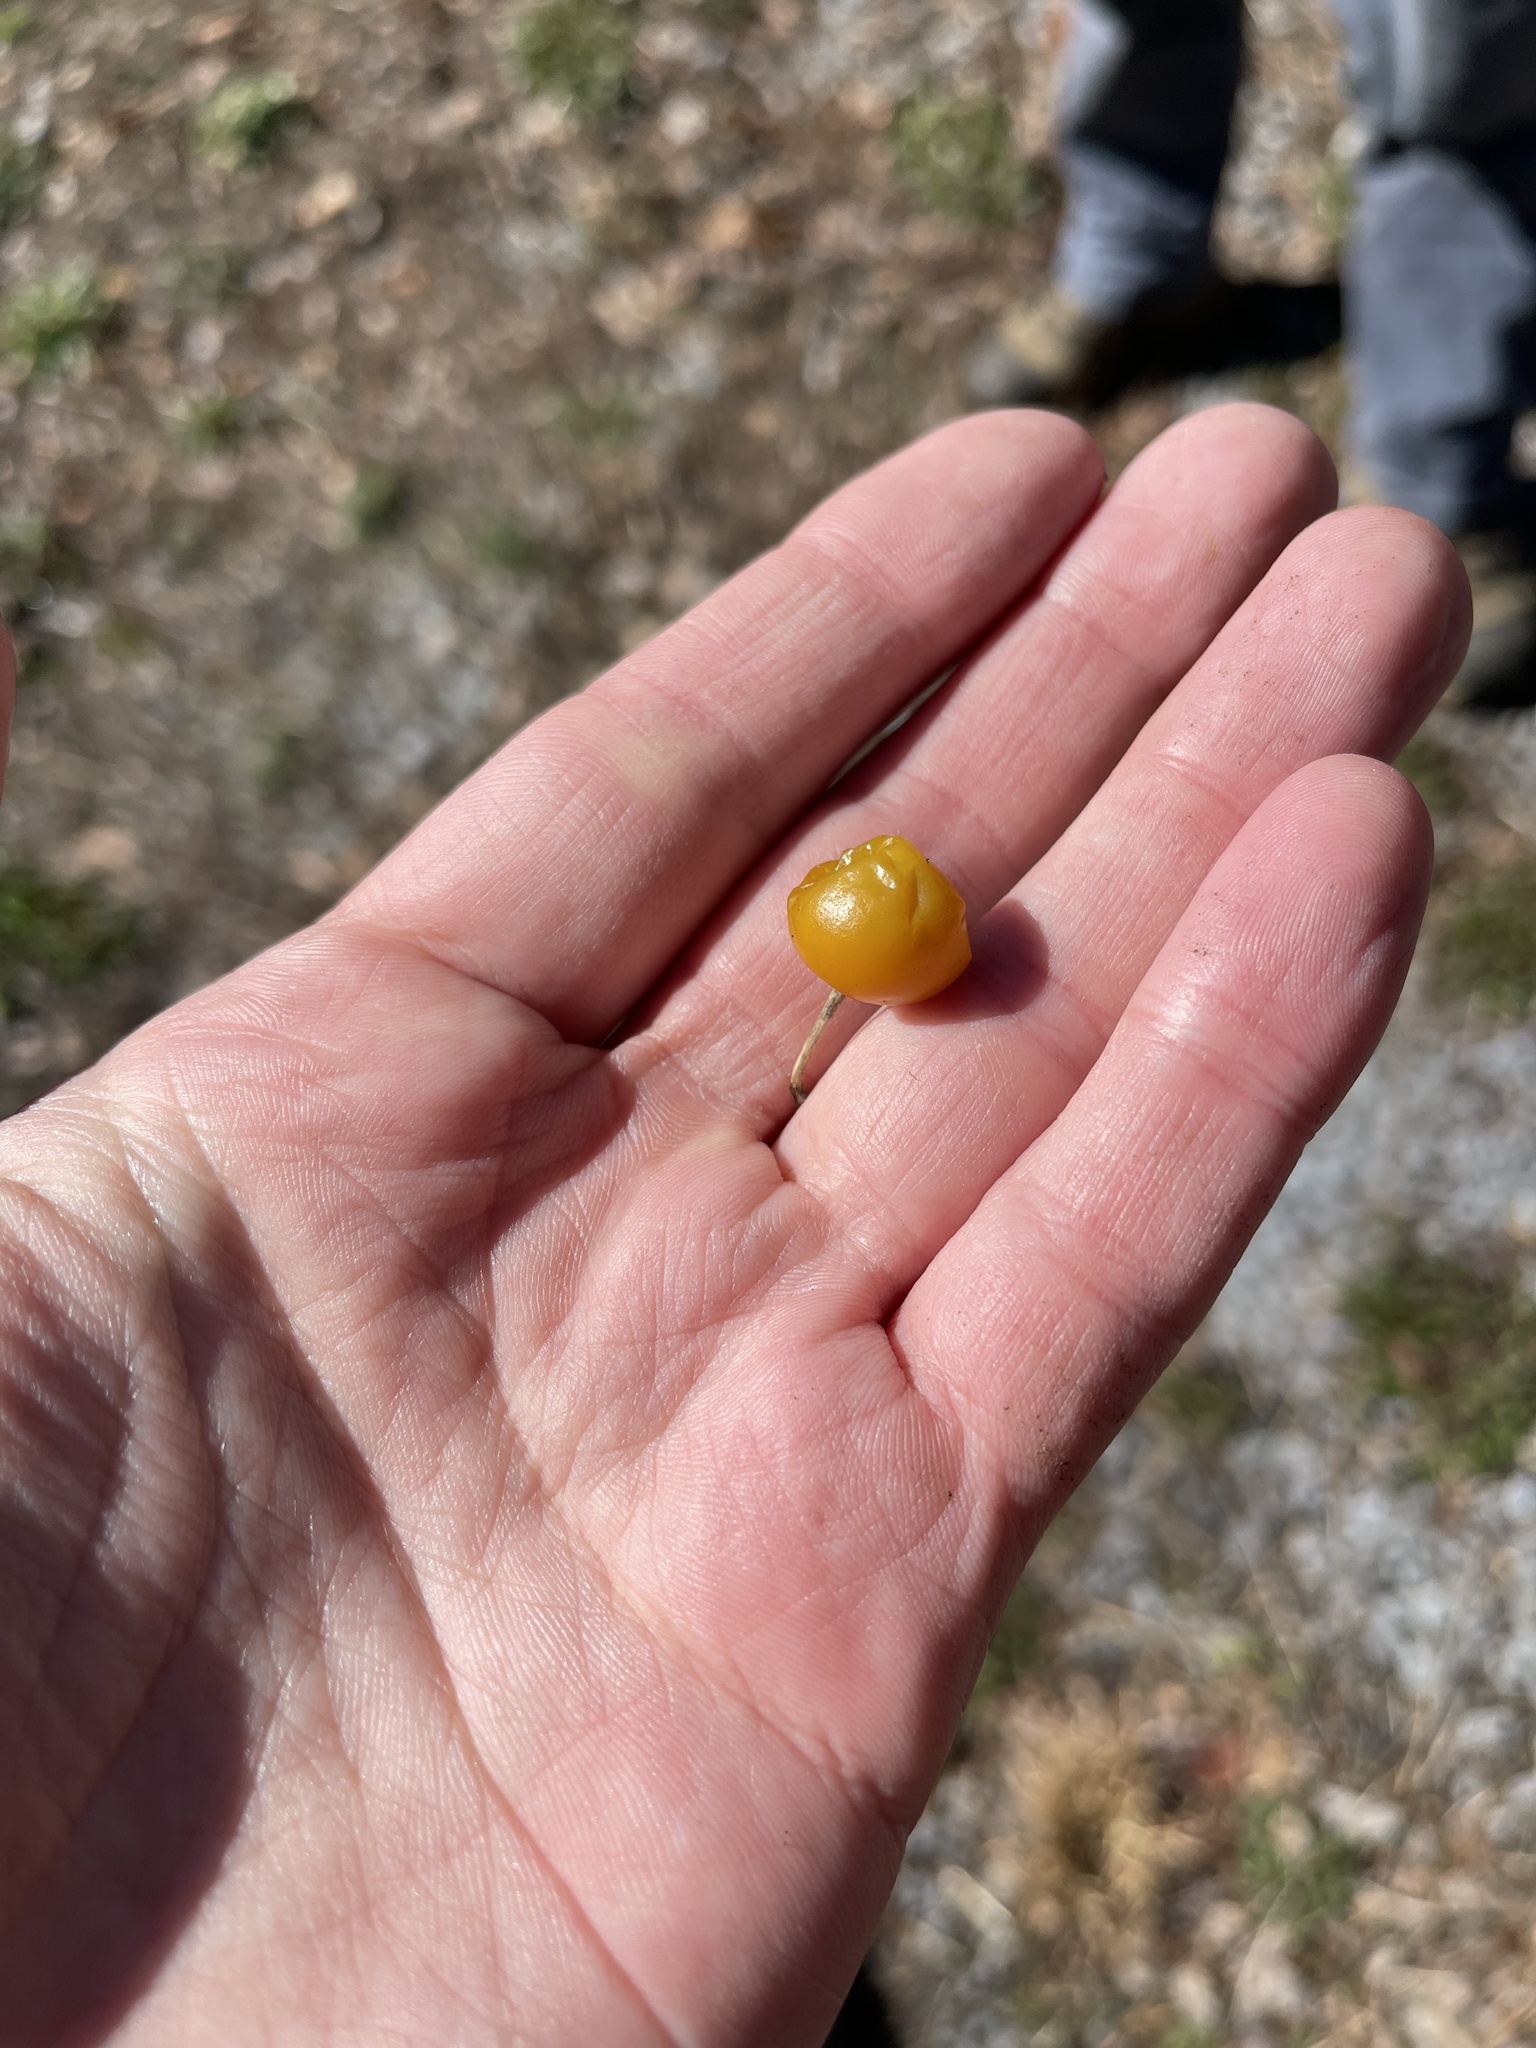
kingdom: Plantae
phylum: Tracheophyta
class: Magnoliopsida
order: Solanales
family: Solanaceae
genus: Solanum
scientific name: Solanum carolinense
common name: Horse-nettle
